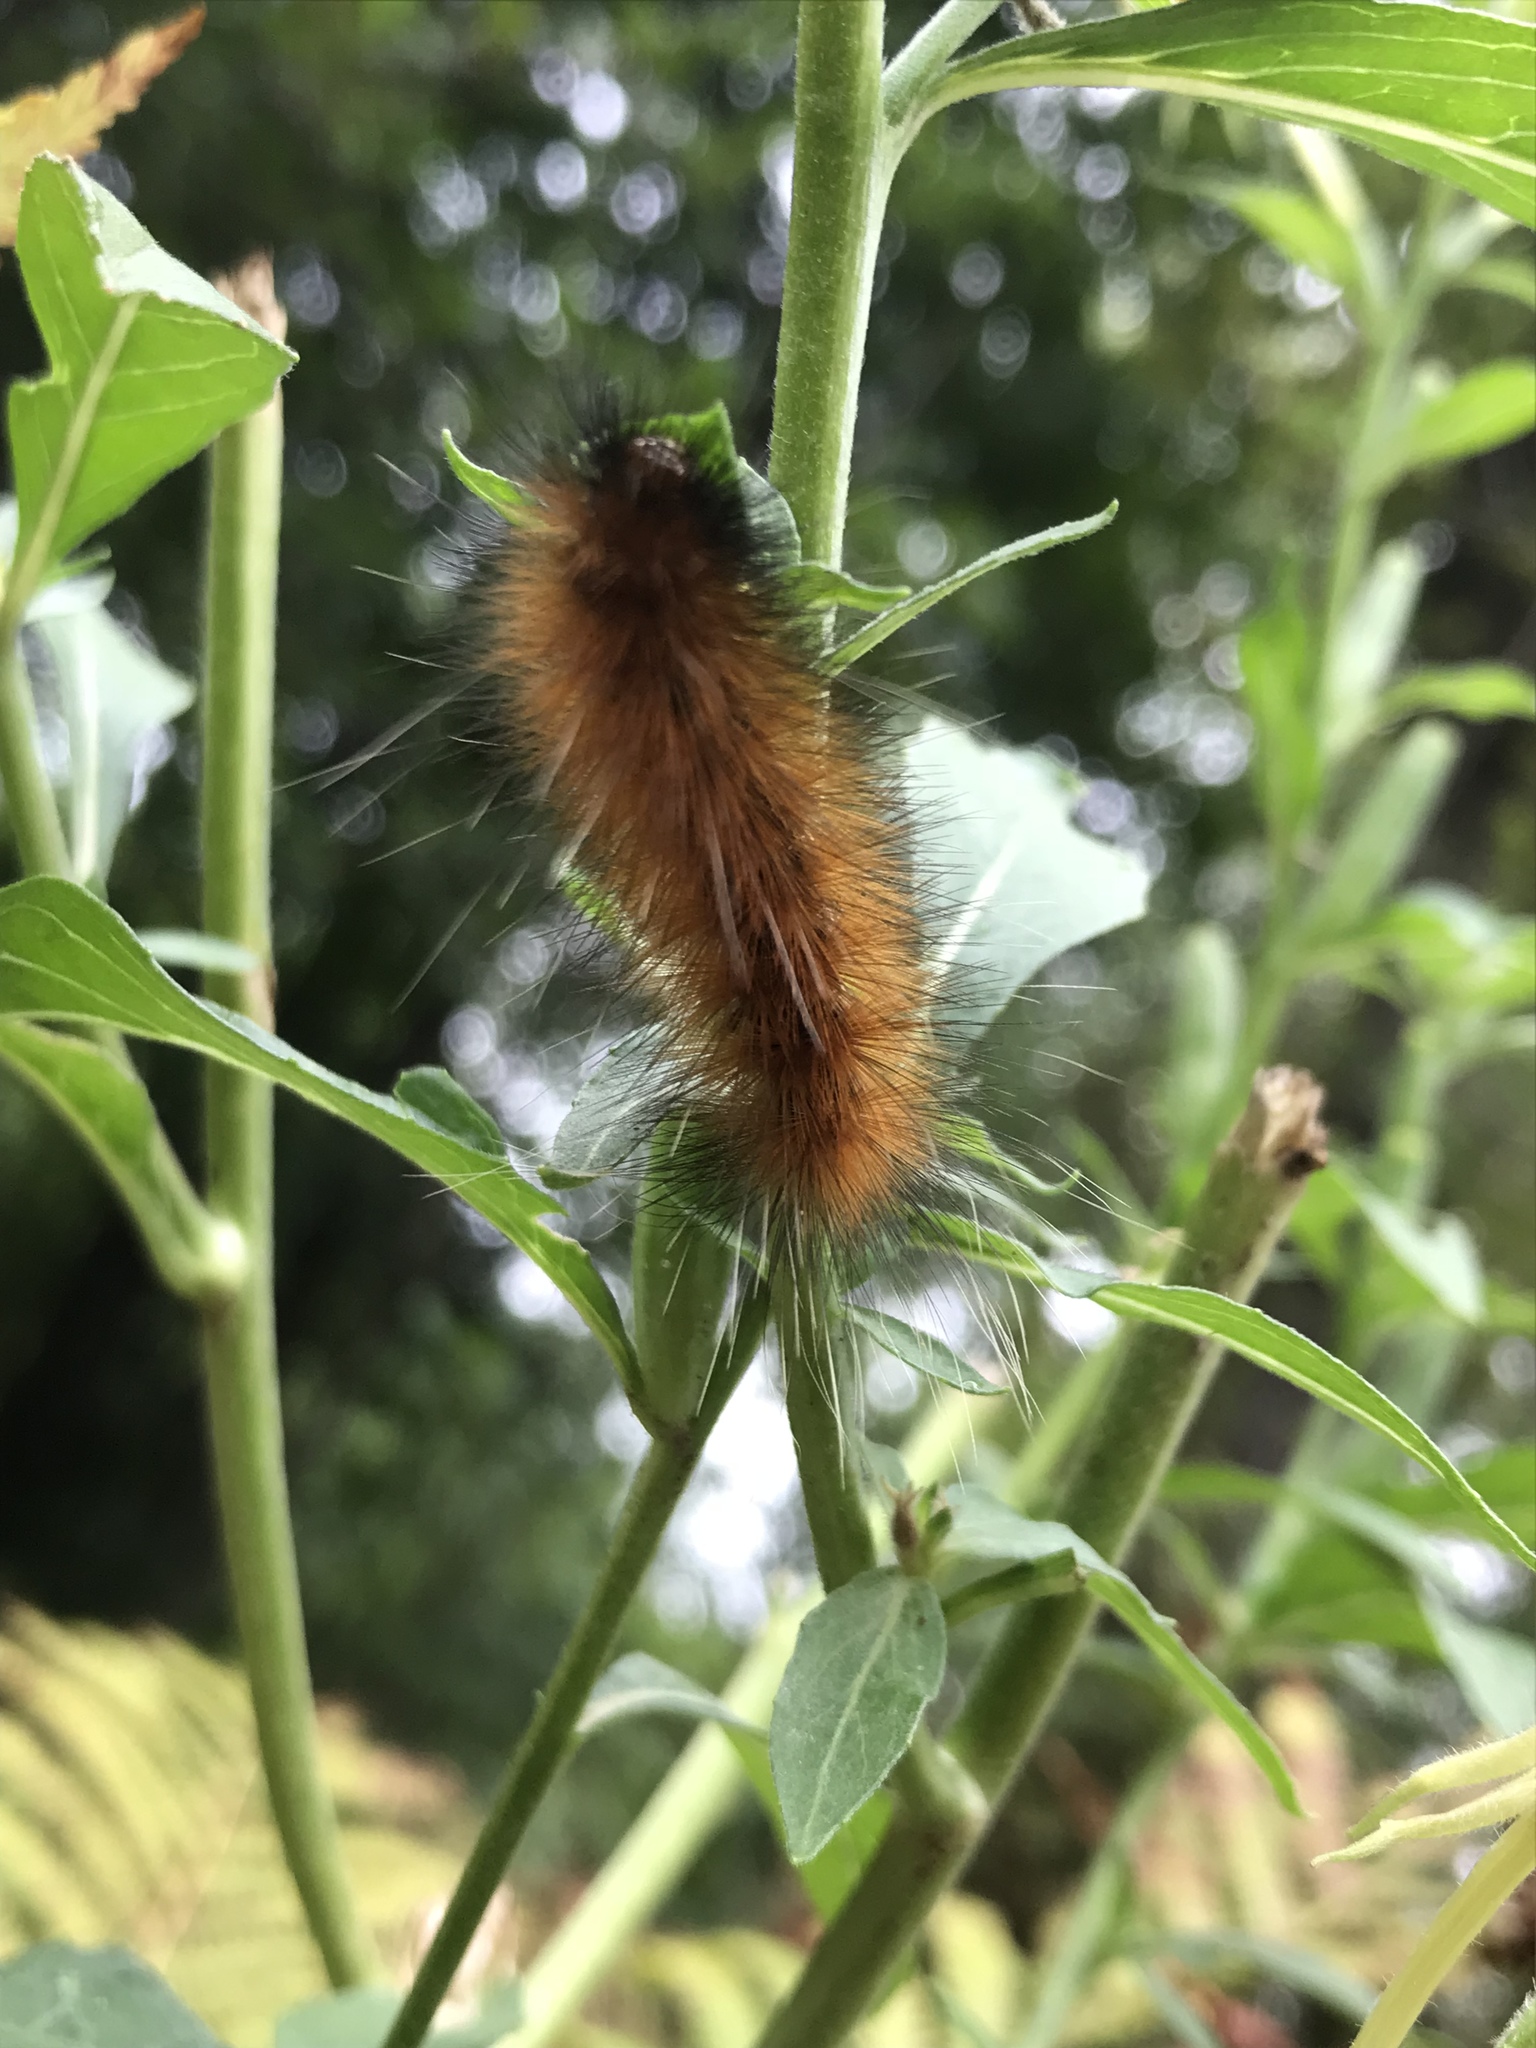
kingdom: Animalia
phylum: Arthropoda
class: Insecta
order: Lepidoptera
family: Erebidae
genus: Spilosoma
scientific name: Spilosoma virginica
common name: Virginia tiger moth
